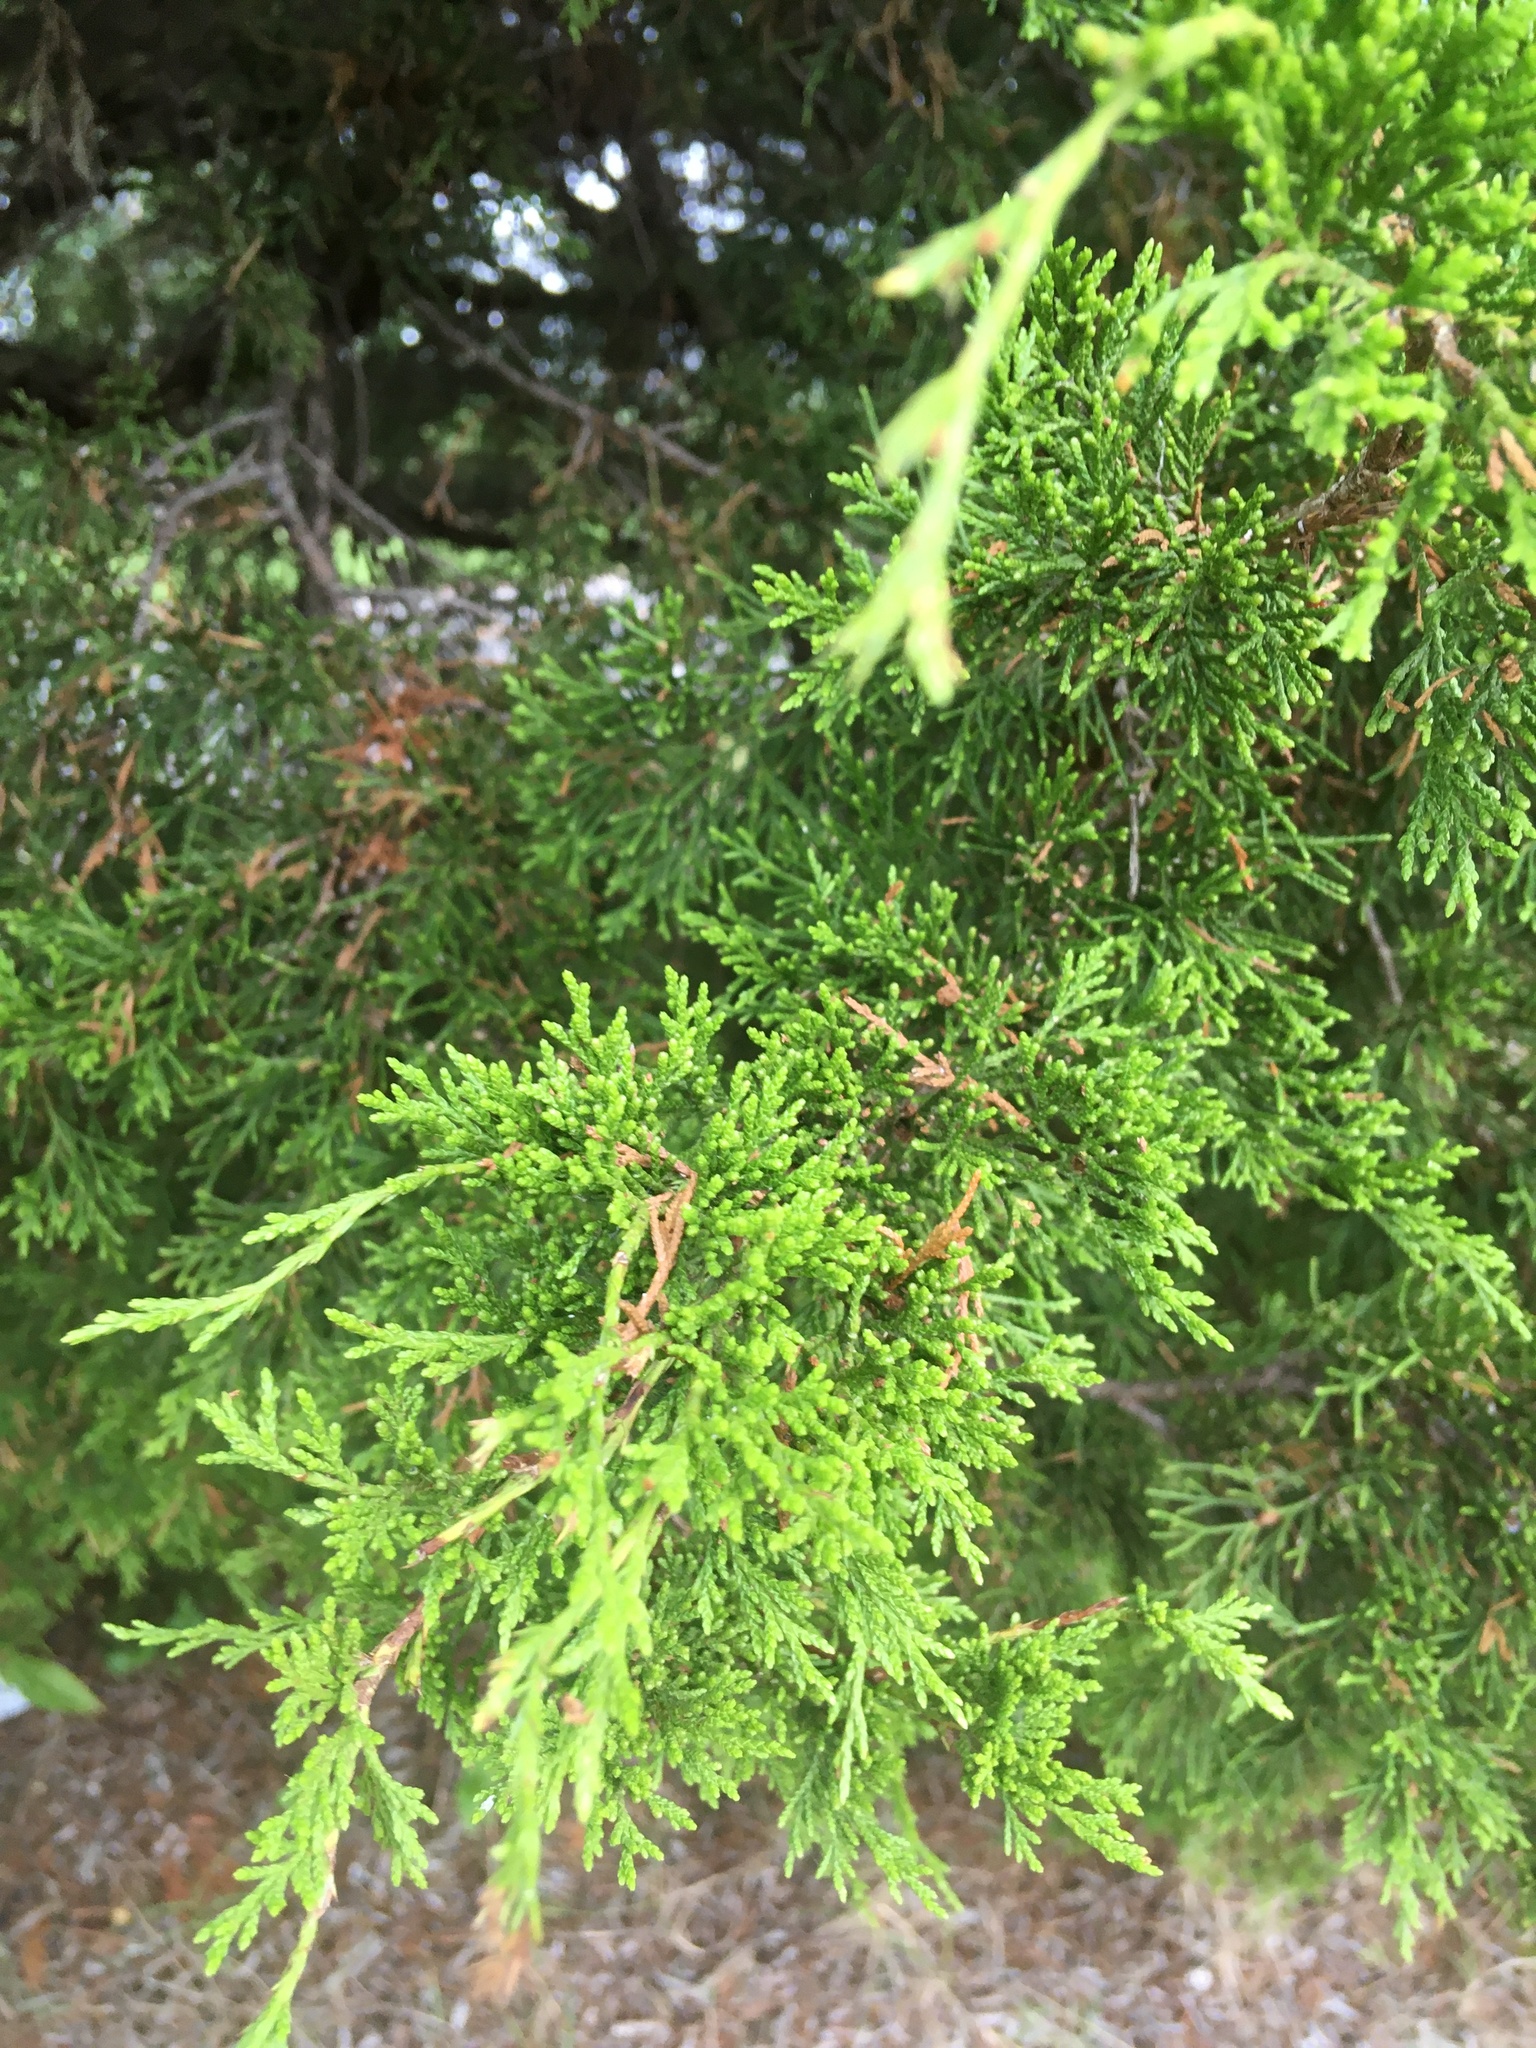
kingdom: Plantae
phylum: Tracheophyta
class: Pinopsida
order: Pinales
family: Cupressaceae
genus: Juniperus
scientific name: Juniperus virginiana
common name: Red juniper
